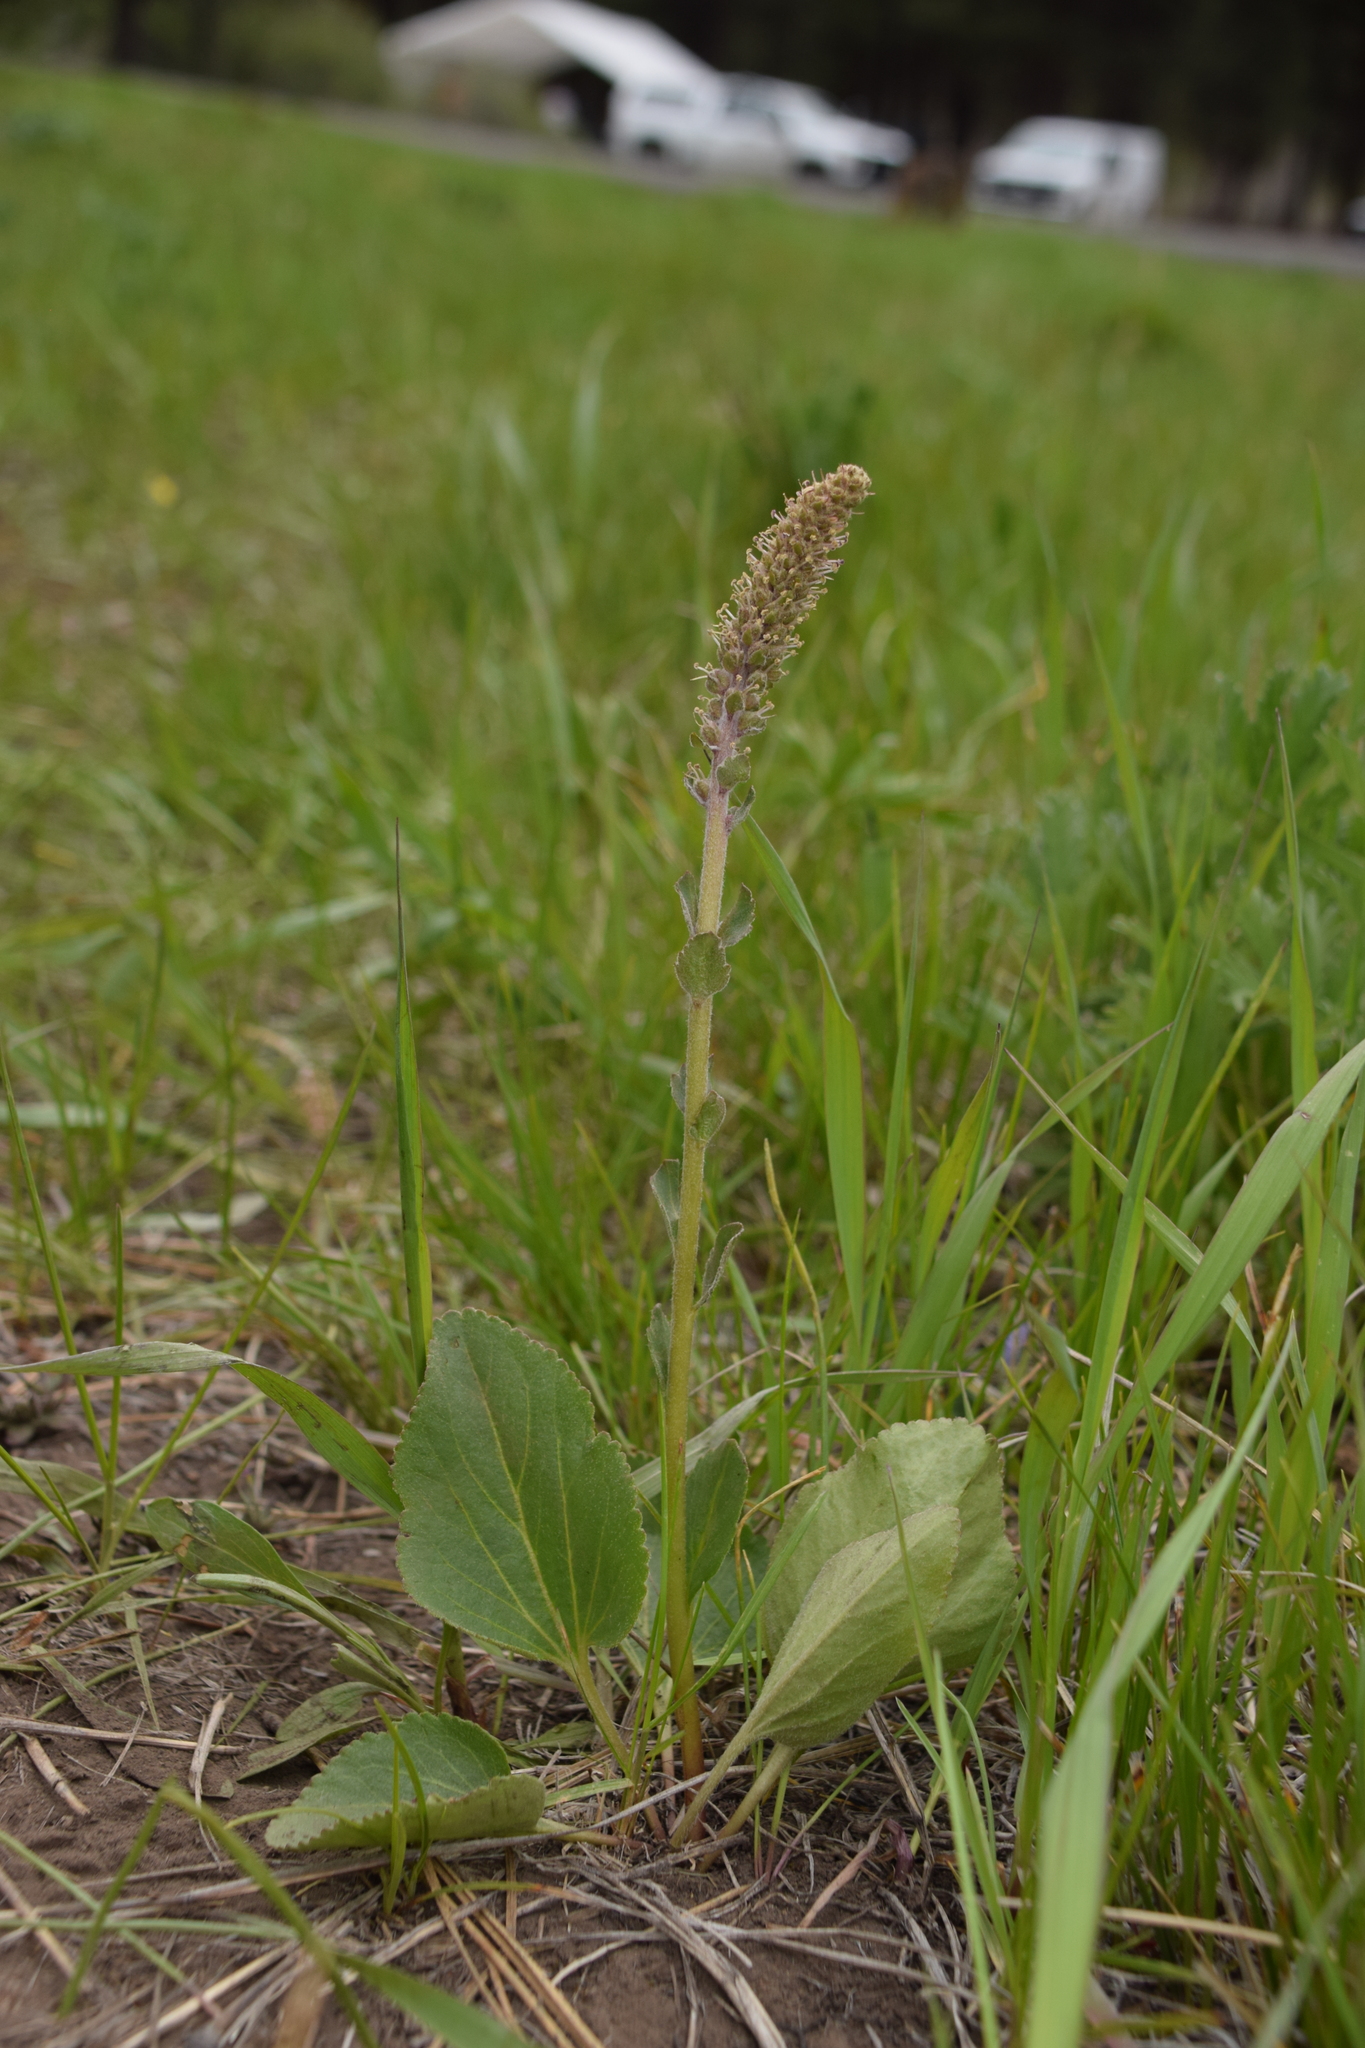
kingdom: Plantae
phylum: Tracheophyta
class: Magnoliopsida
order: Lamiales
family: Plantaginaceae
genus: Synthyris
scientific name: Synthyris rubra
